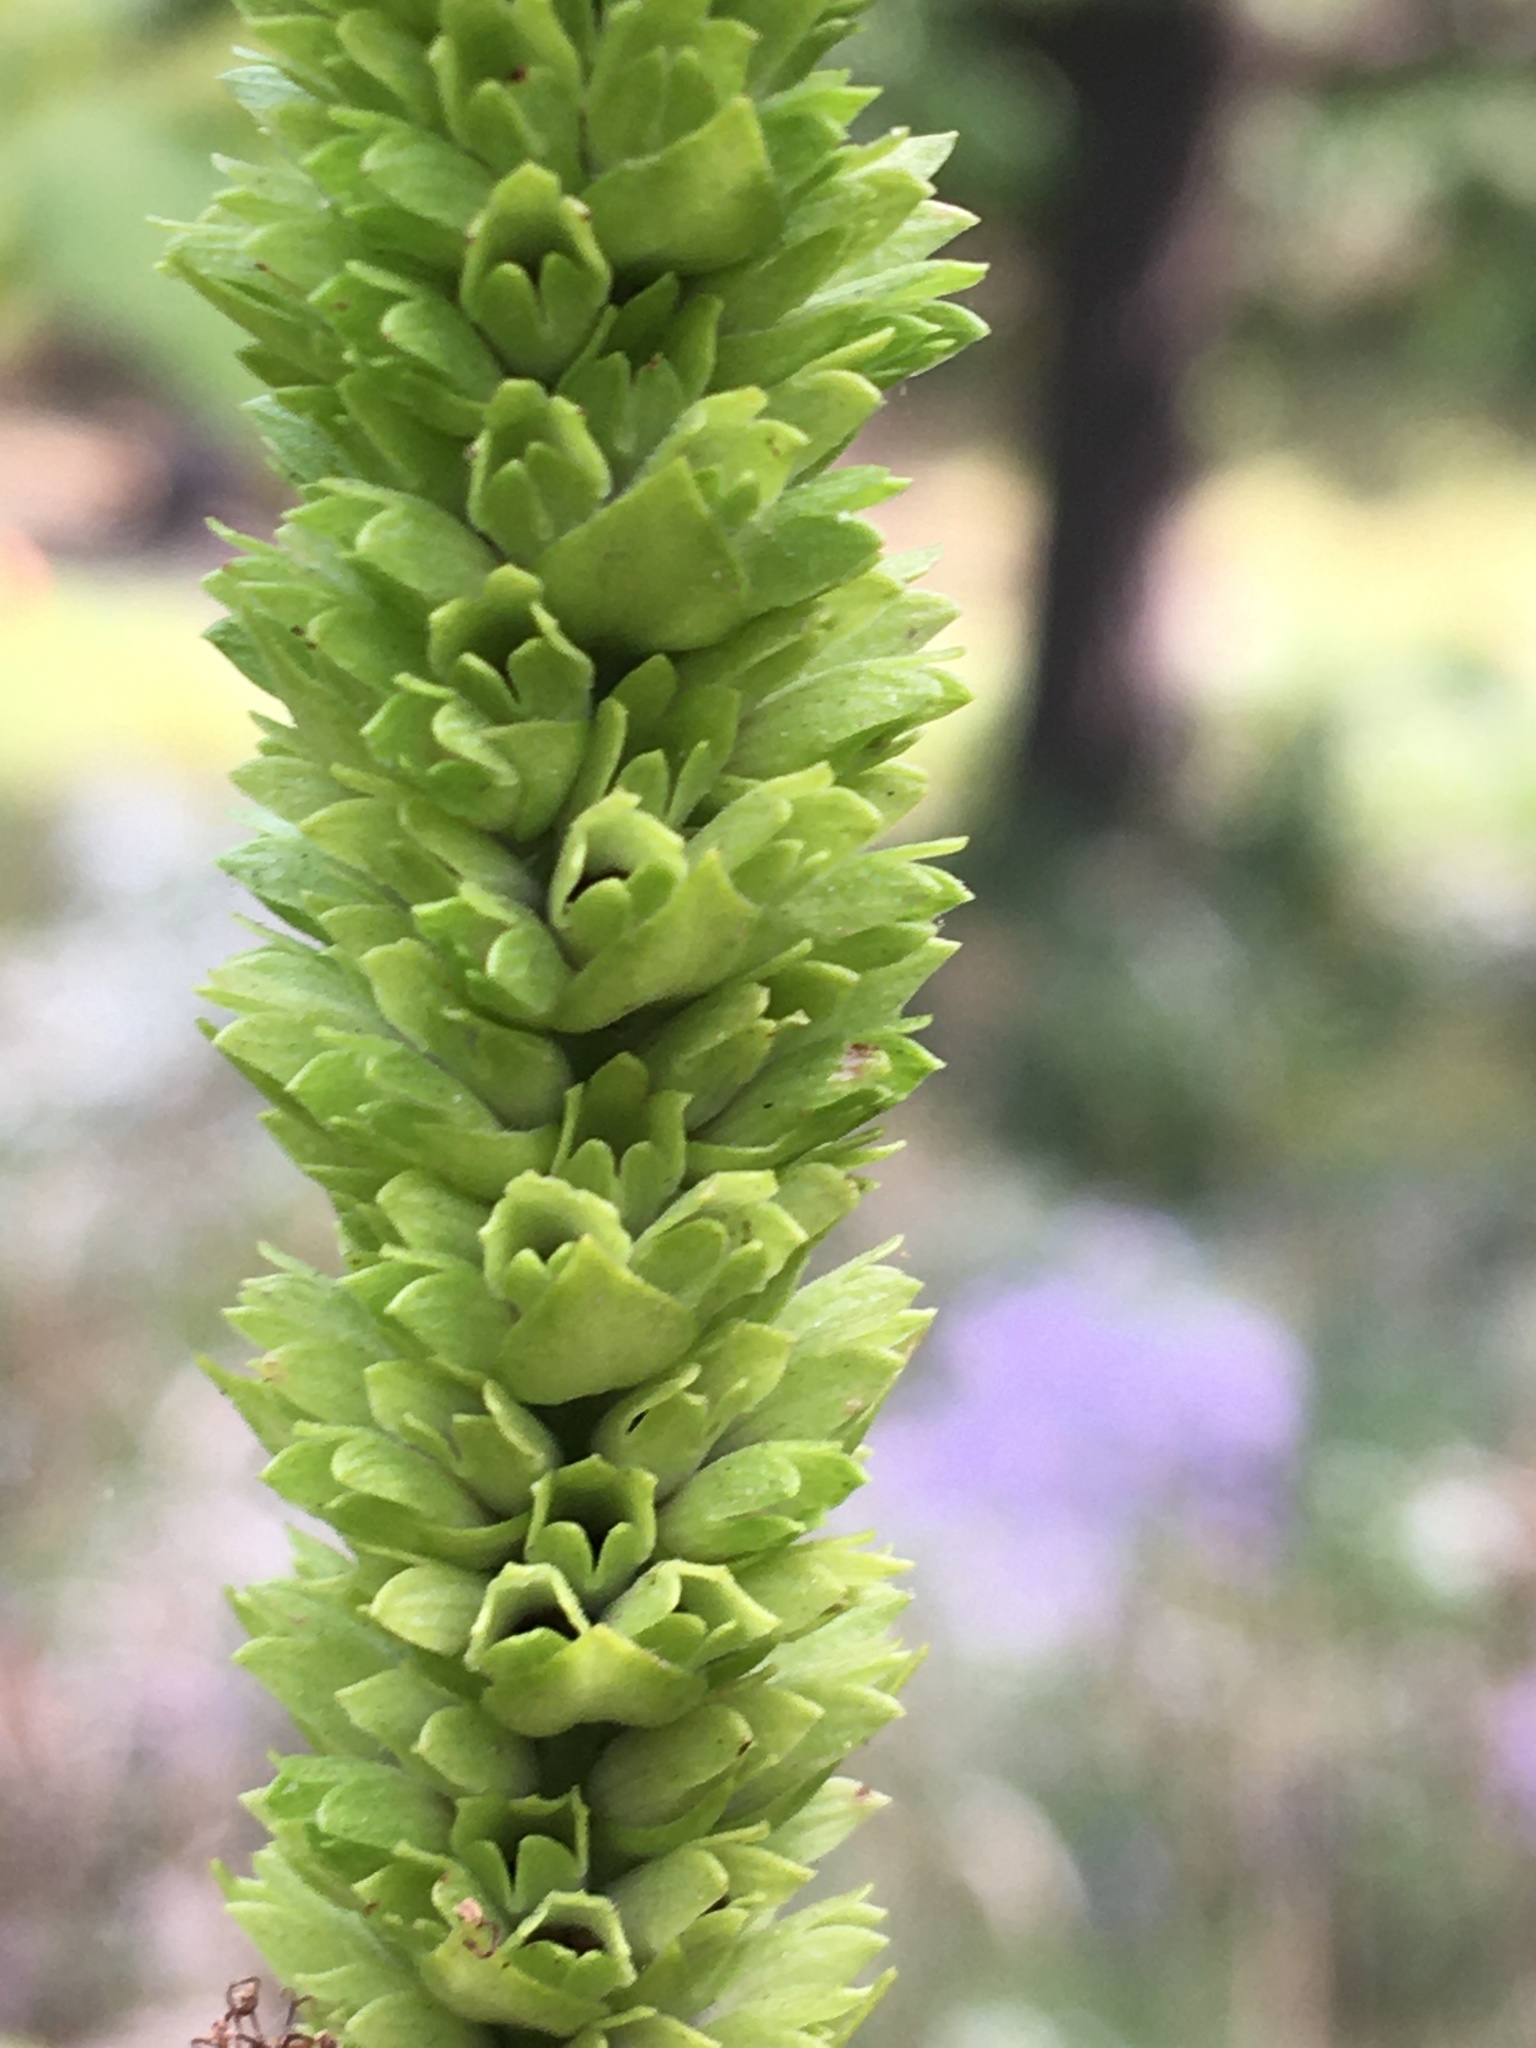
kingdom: Plantae
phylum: Tracheophyta
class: Magnoliopsida
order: Lamiales
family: Lamiaceae
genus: Agastache
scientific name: Agastache nepetoides
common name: Catnip giant hyssop
